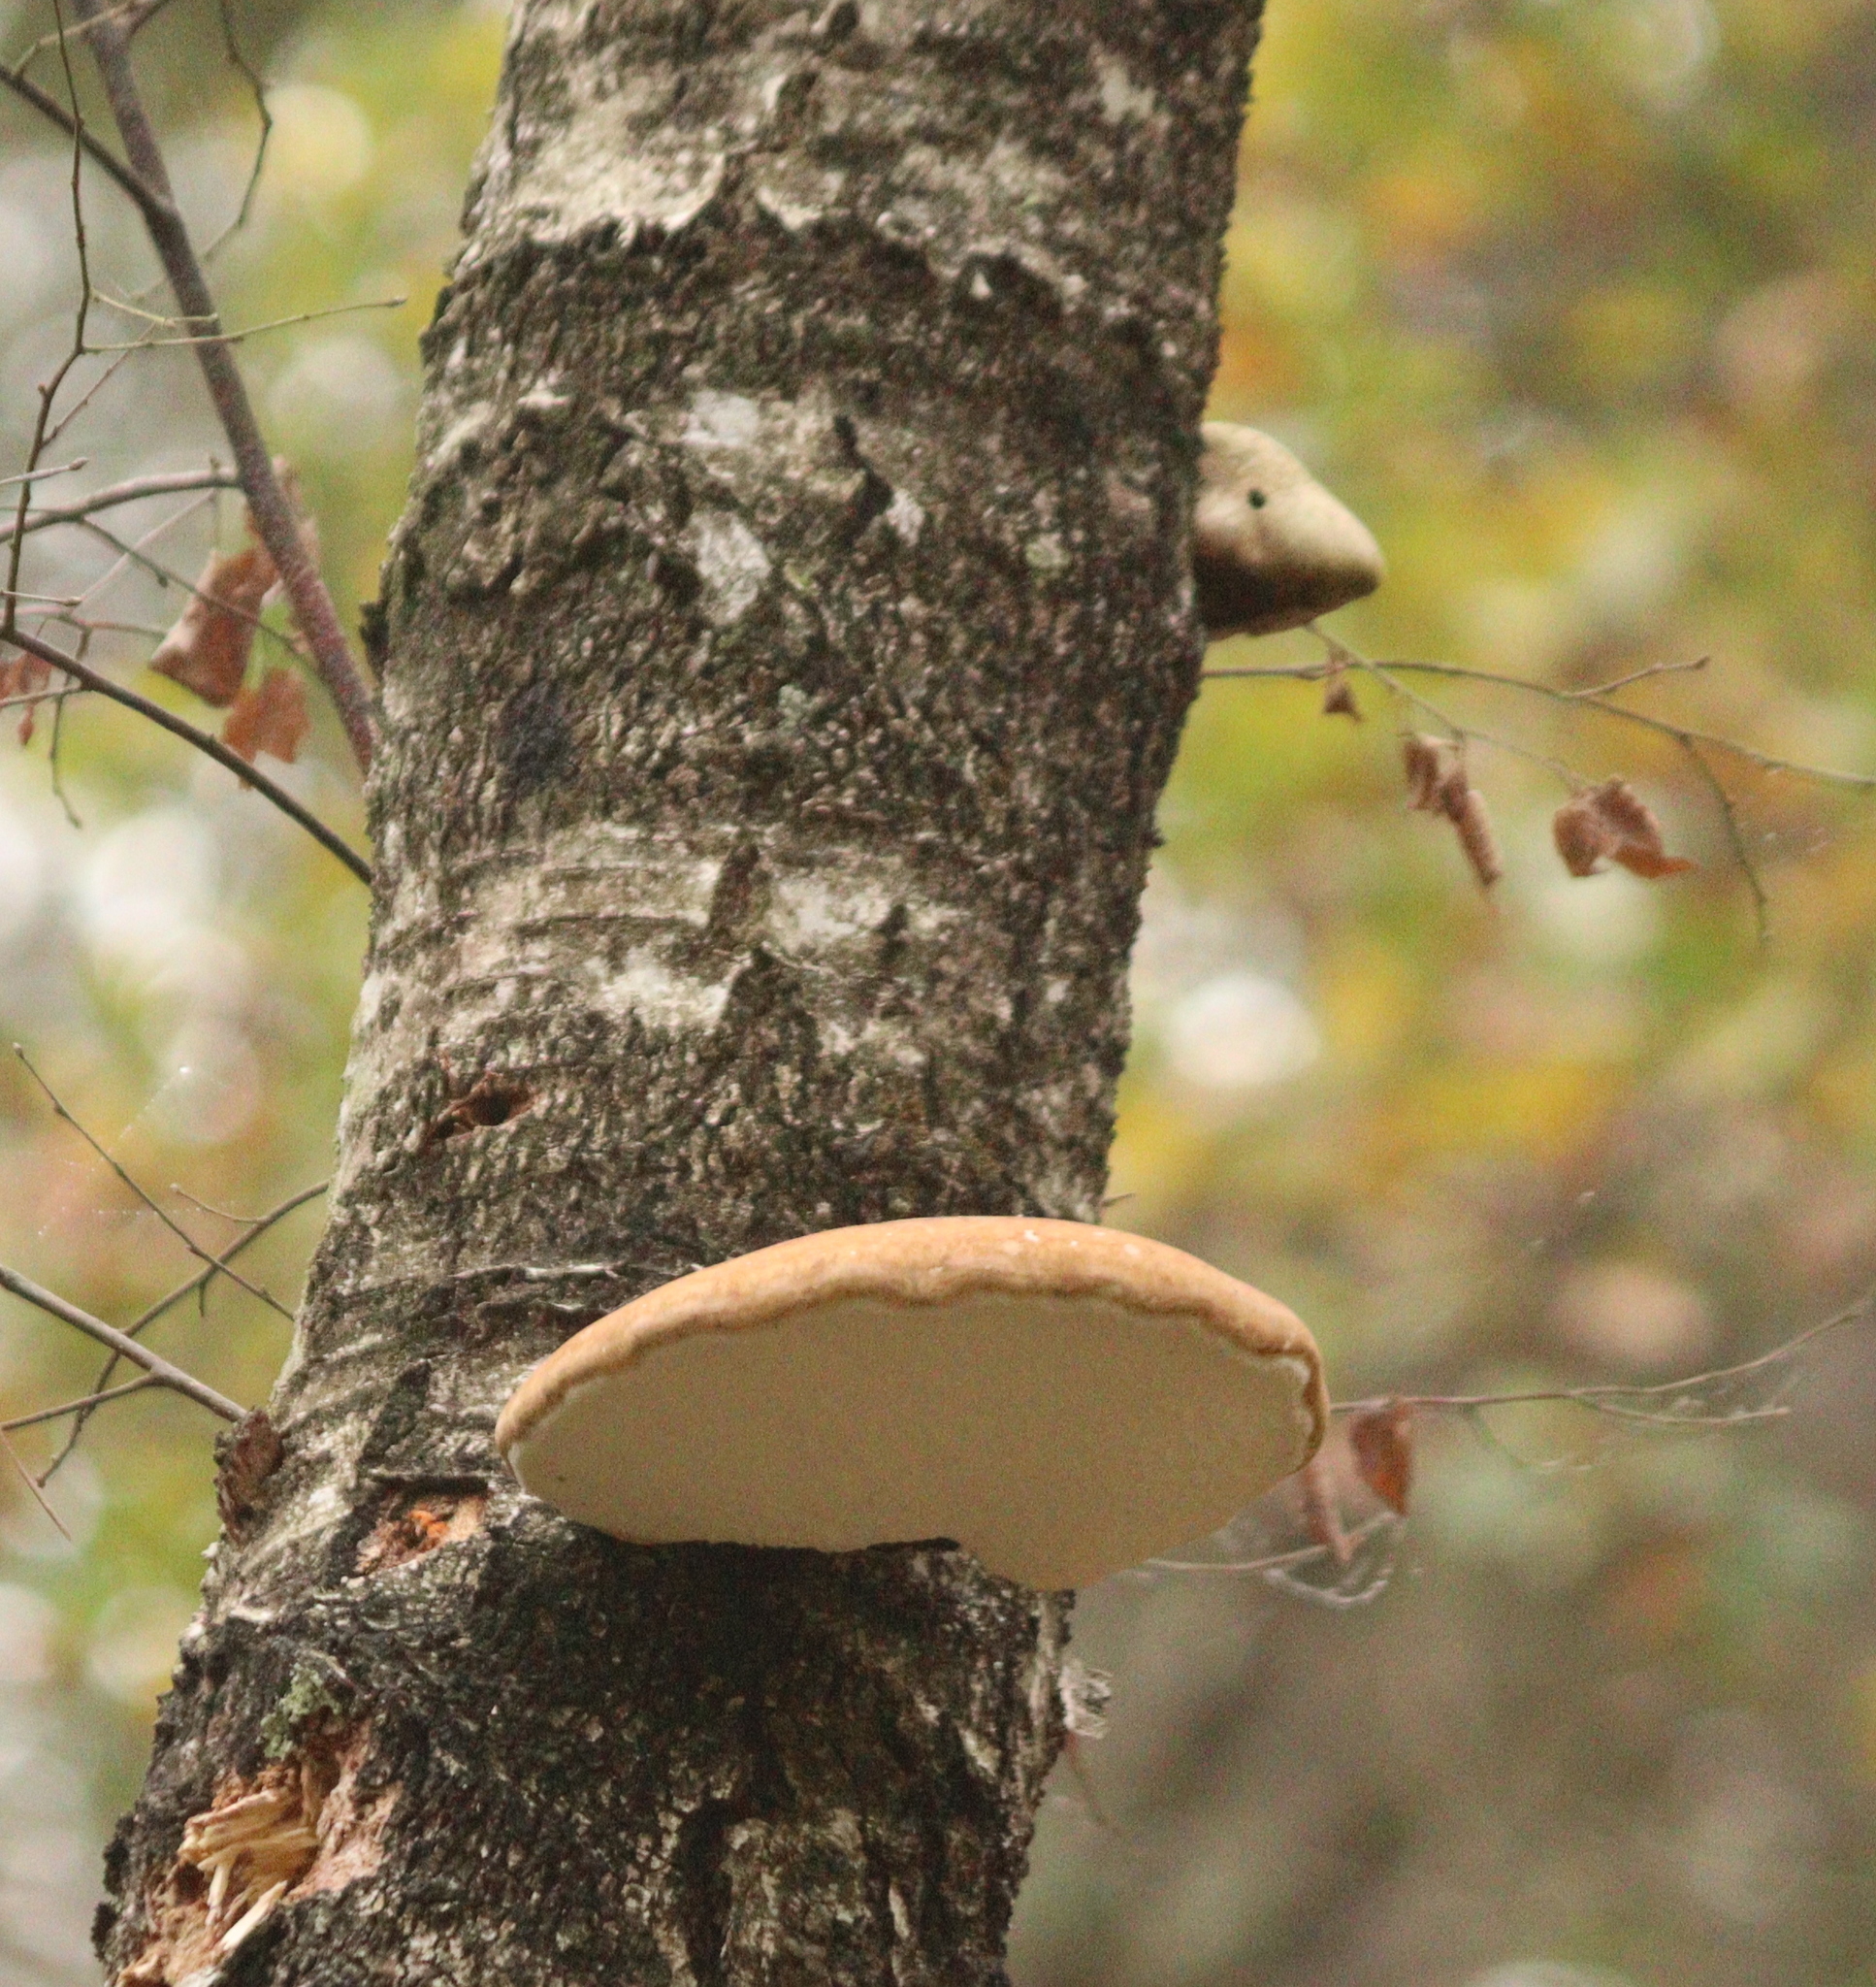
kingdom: Fungi
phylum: Basidiomycota
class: Agaricomycetes
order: Polyporales
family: Fomitopsidaceae
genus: Fomitopsis
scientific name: Fomitopsis betulina
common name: Birch polypore
